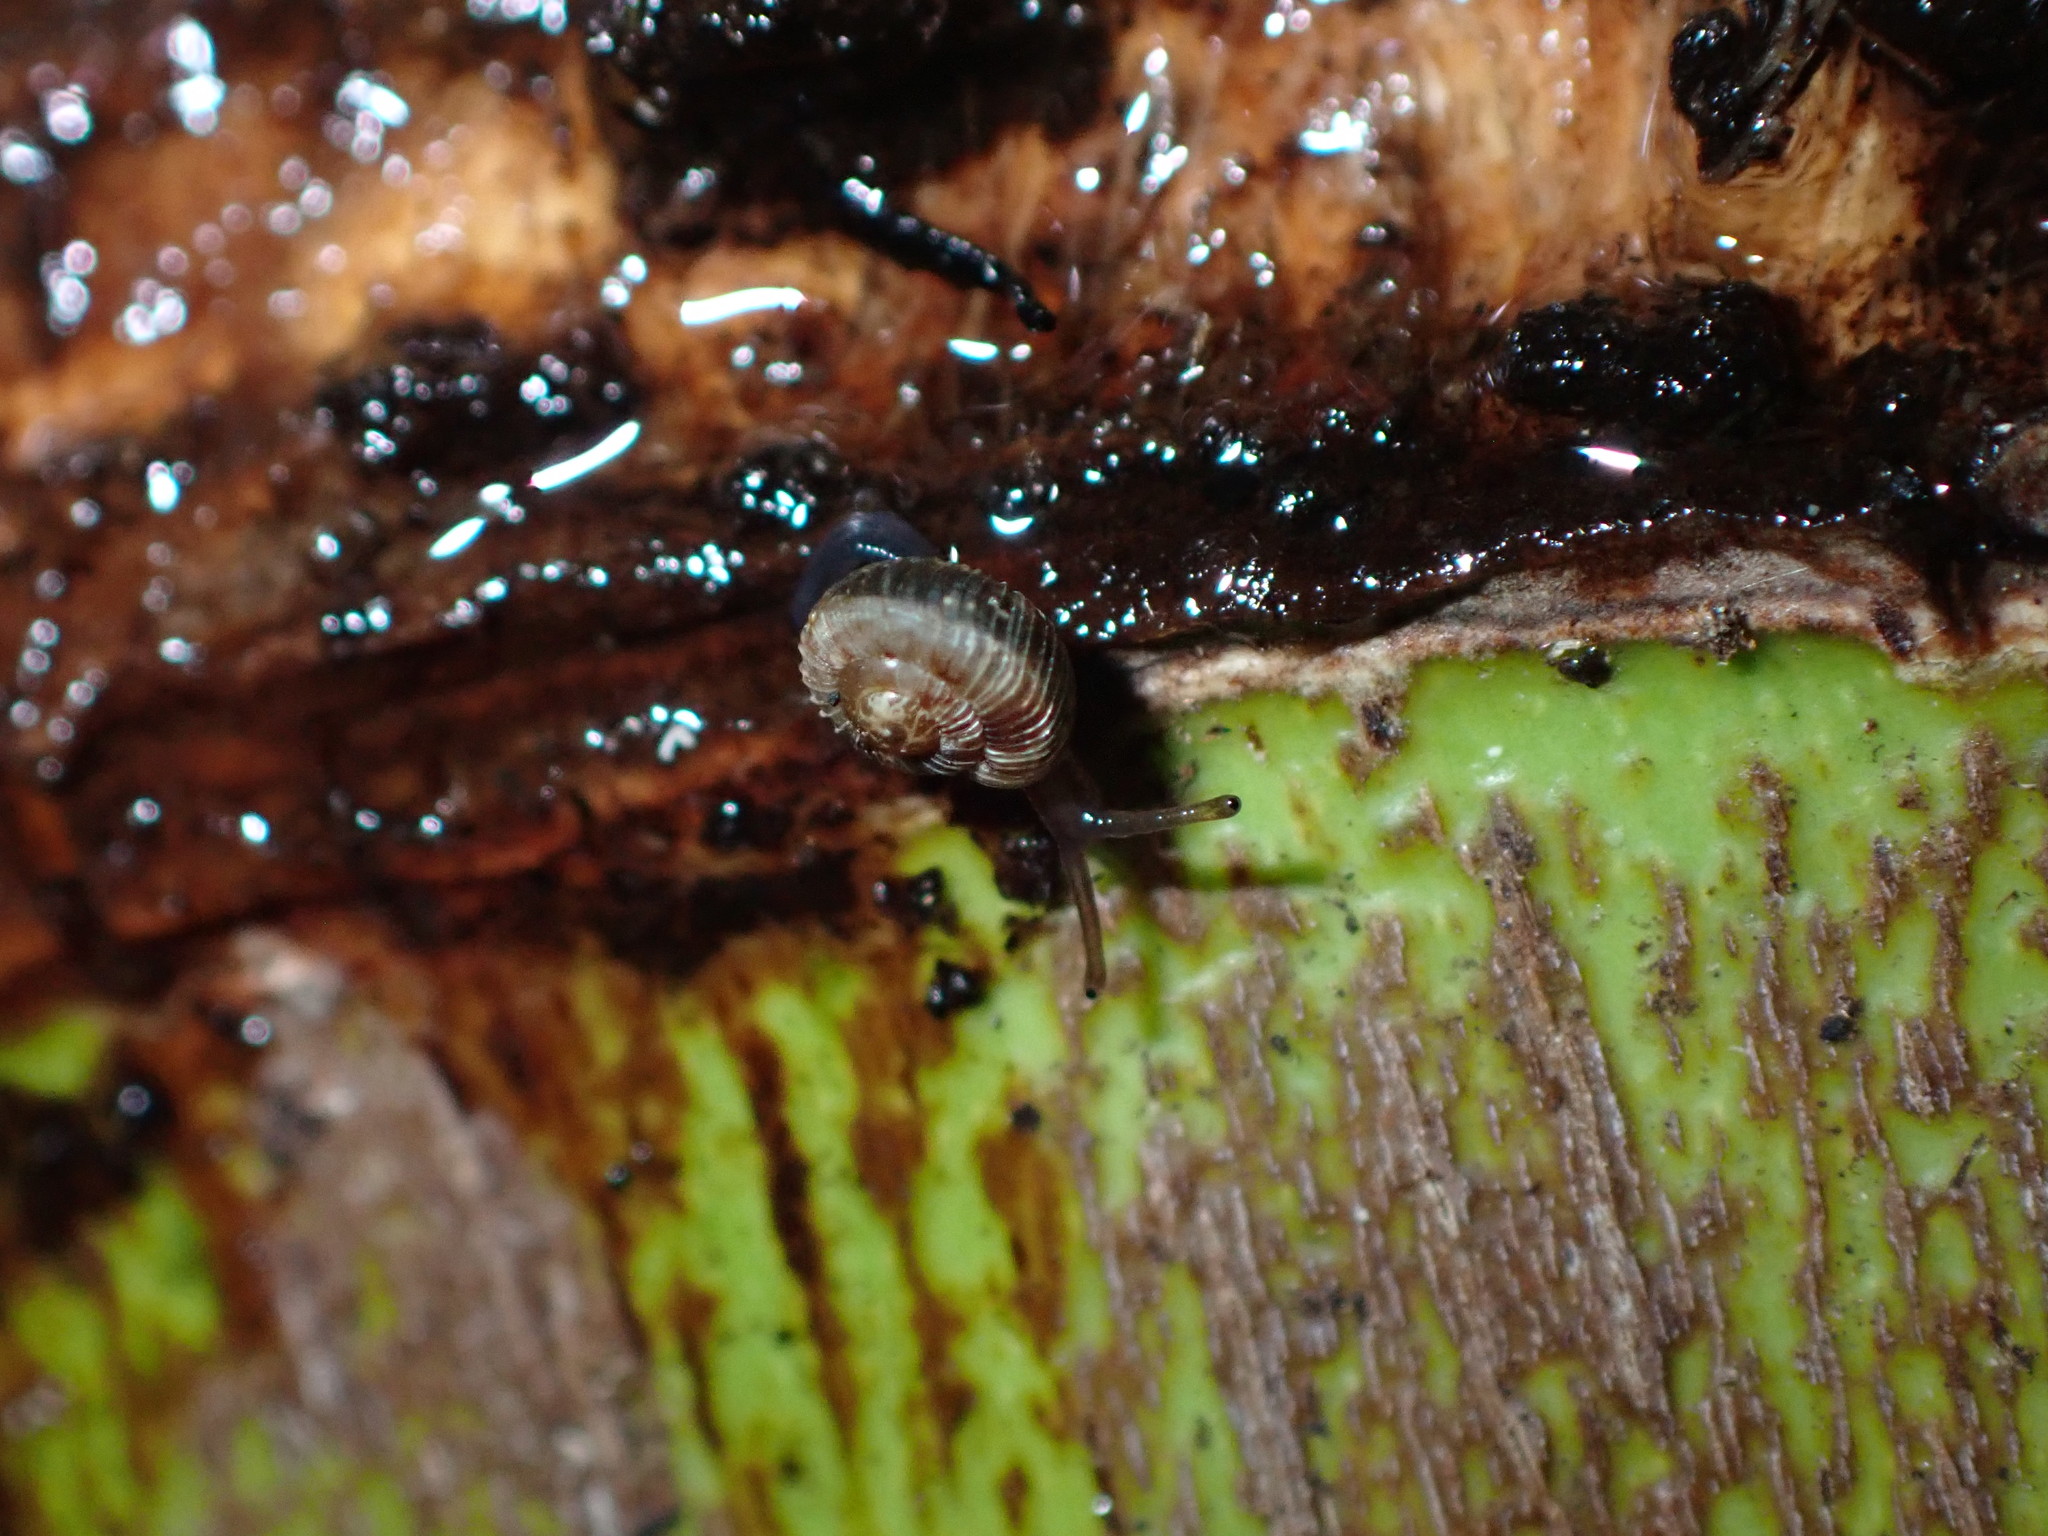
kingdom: Animalia
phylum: Mollusca
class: Gastropoda
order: Stylommatophora
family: Charopidae
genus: Phenacohelix
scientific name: Phenacohelix ponsonbyi
